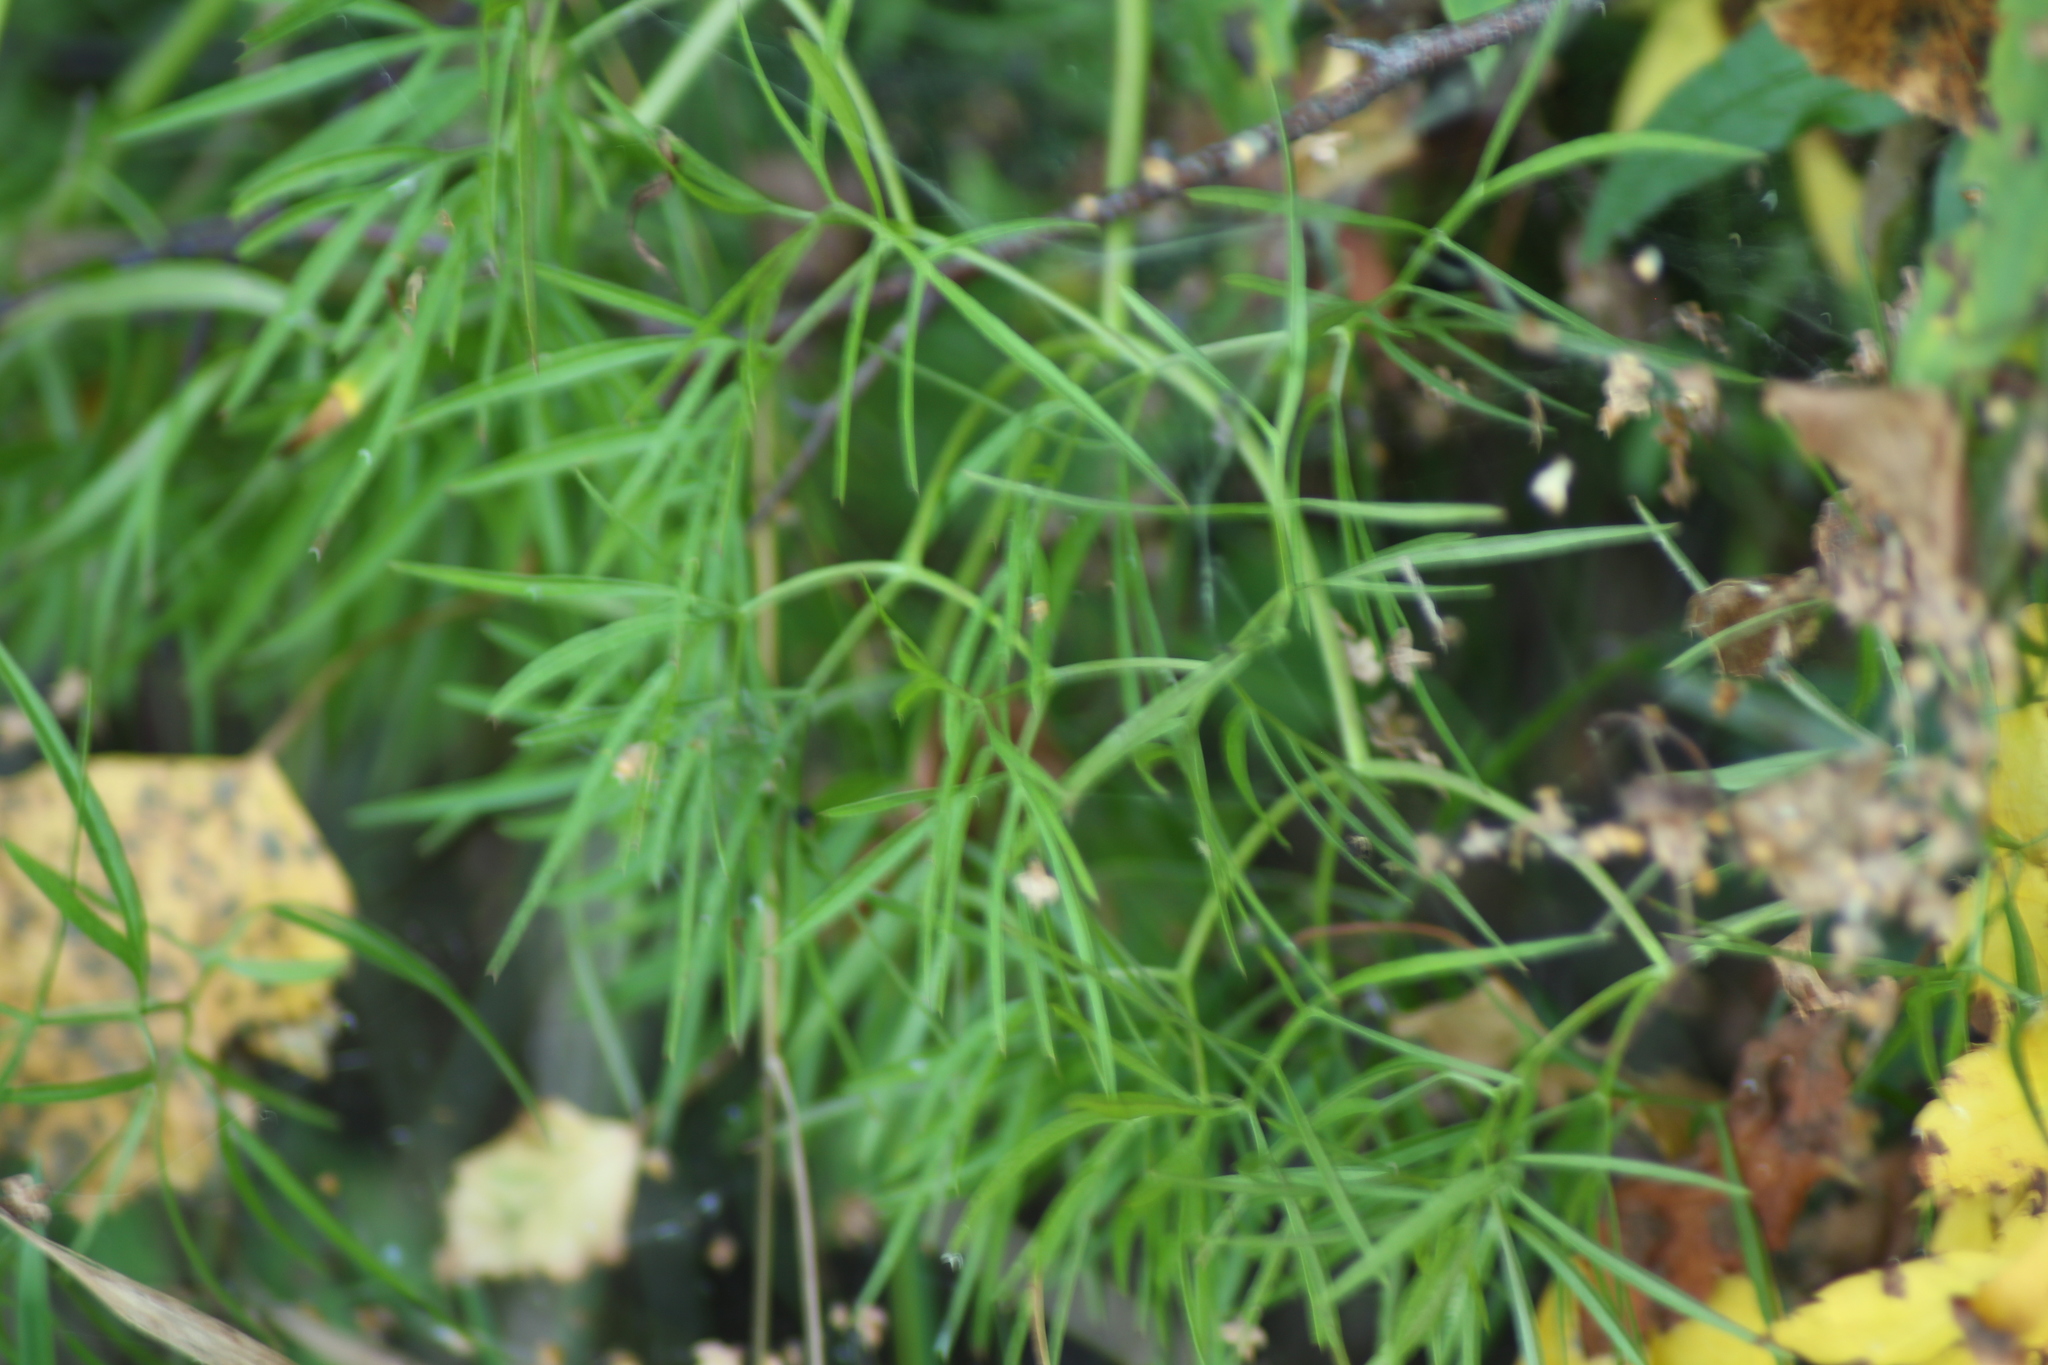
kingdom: Plantae
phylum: Tracheophyta
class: Magnoliopsida
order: Apiales
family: Apiaceae
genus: Cenolophium
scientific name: Cenolophium fischeri
